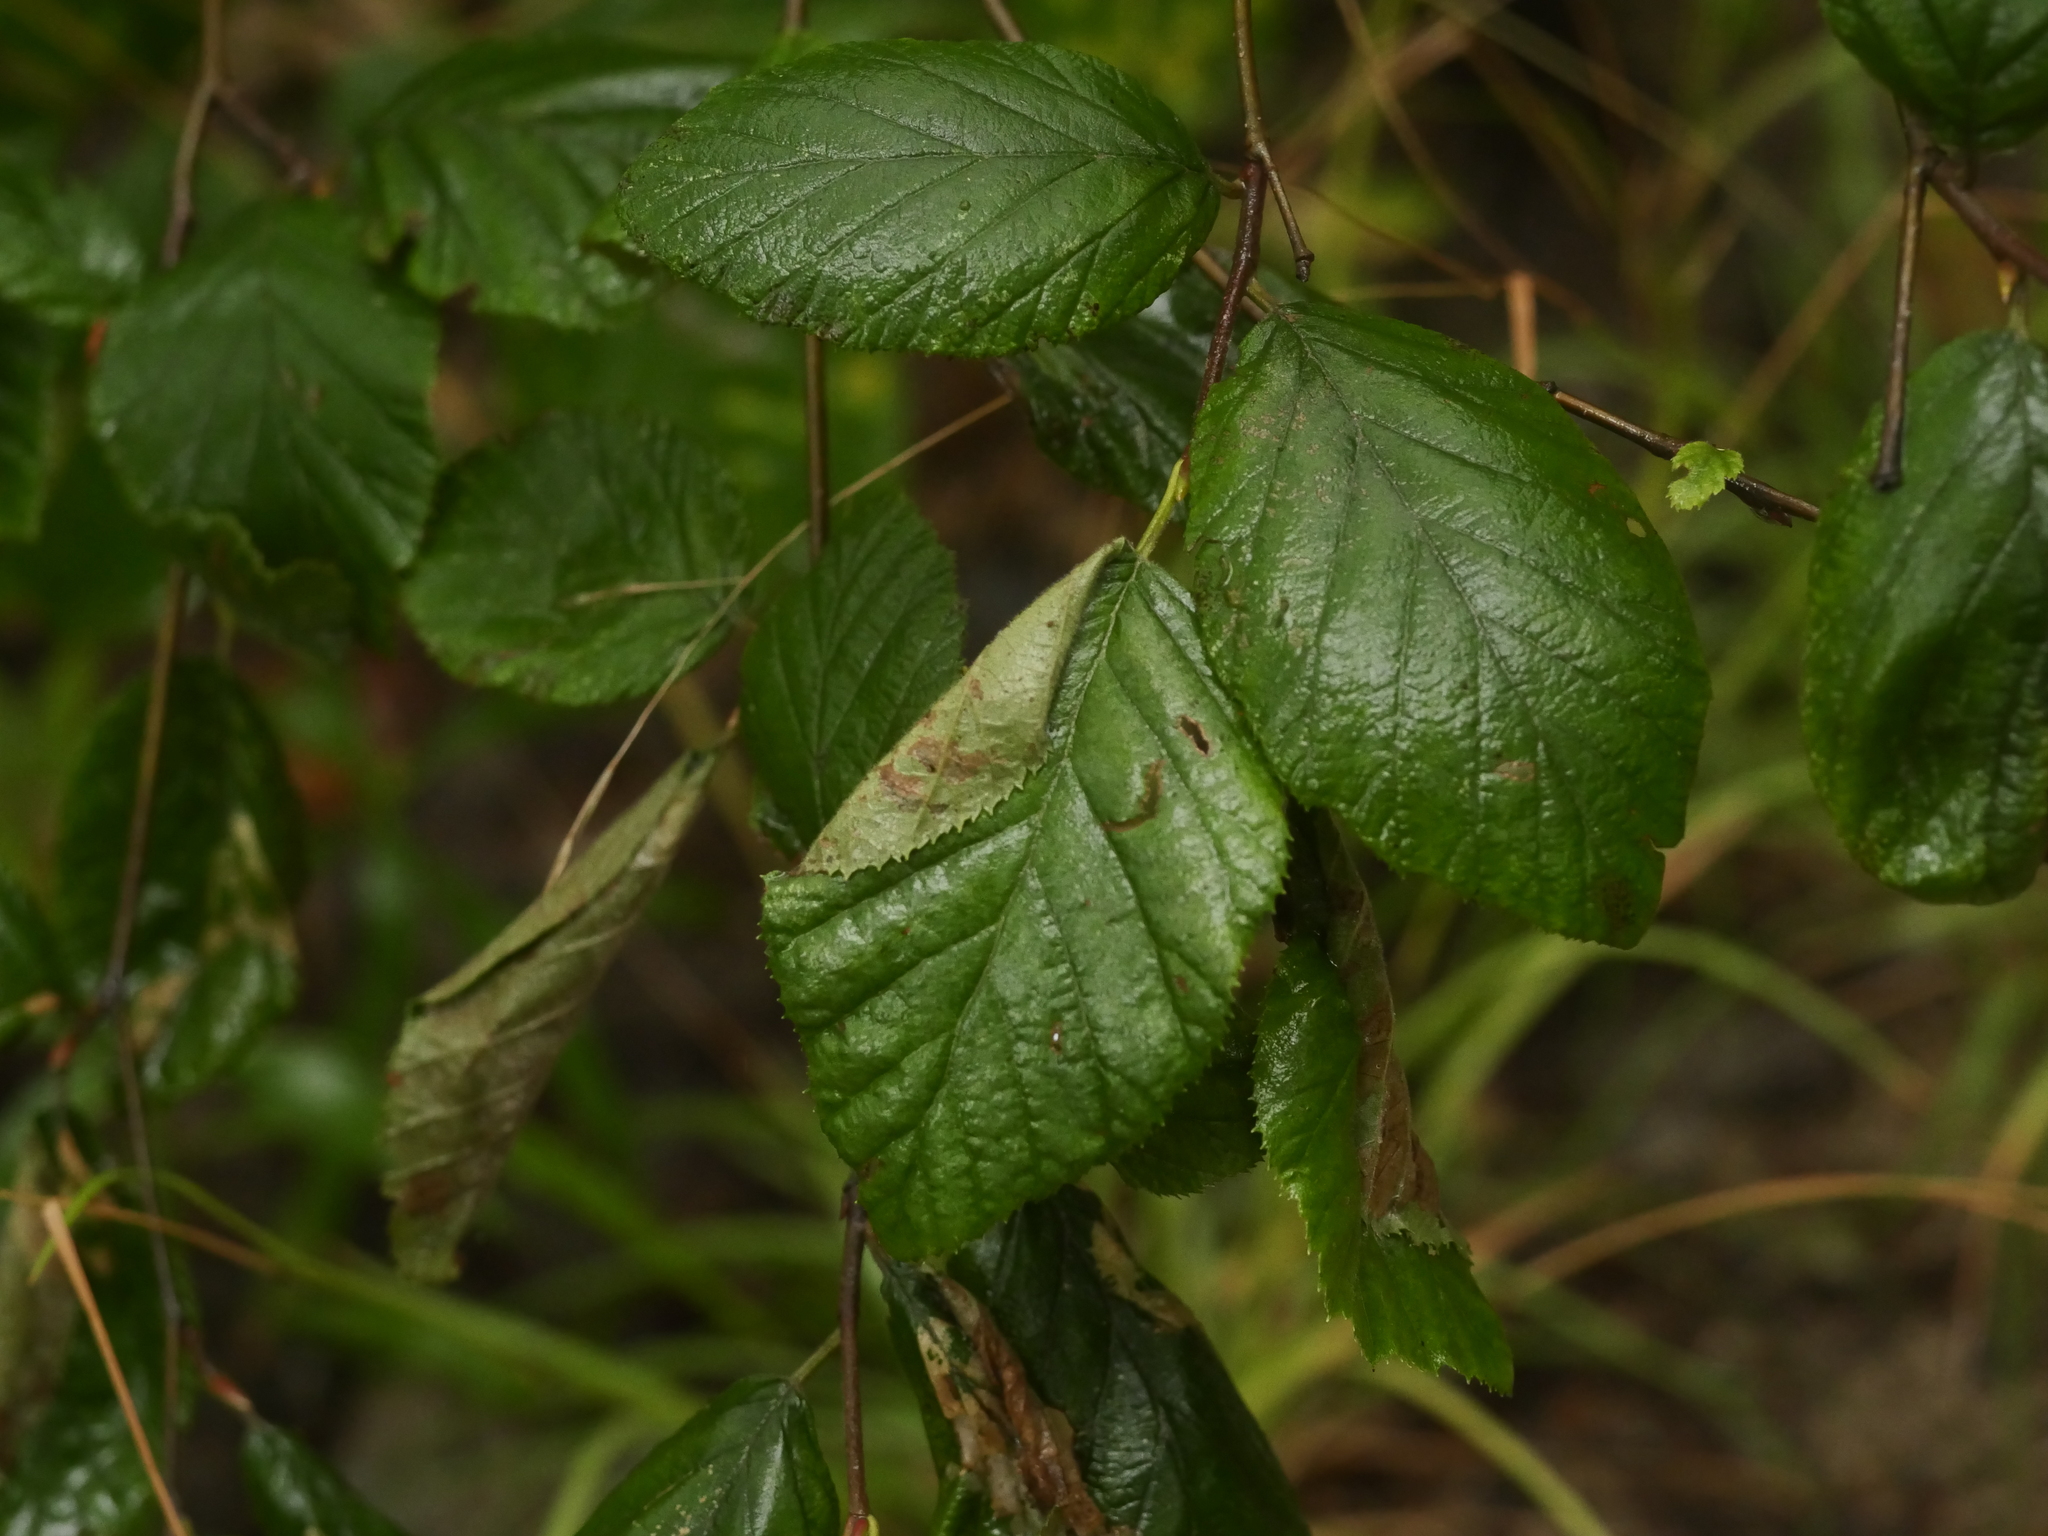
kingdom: Plantae
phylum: Tracheophyta
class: Magnoliopsida
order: Fagales
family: Betulaceae
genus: Alnus
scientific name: Alnus alnobetula
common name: Green alder
